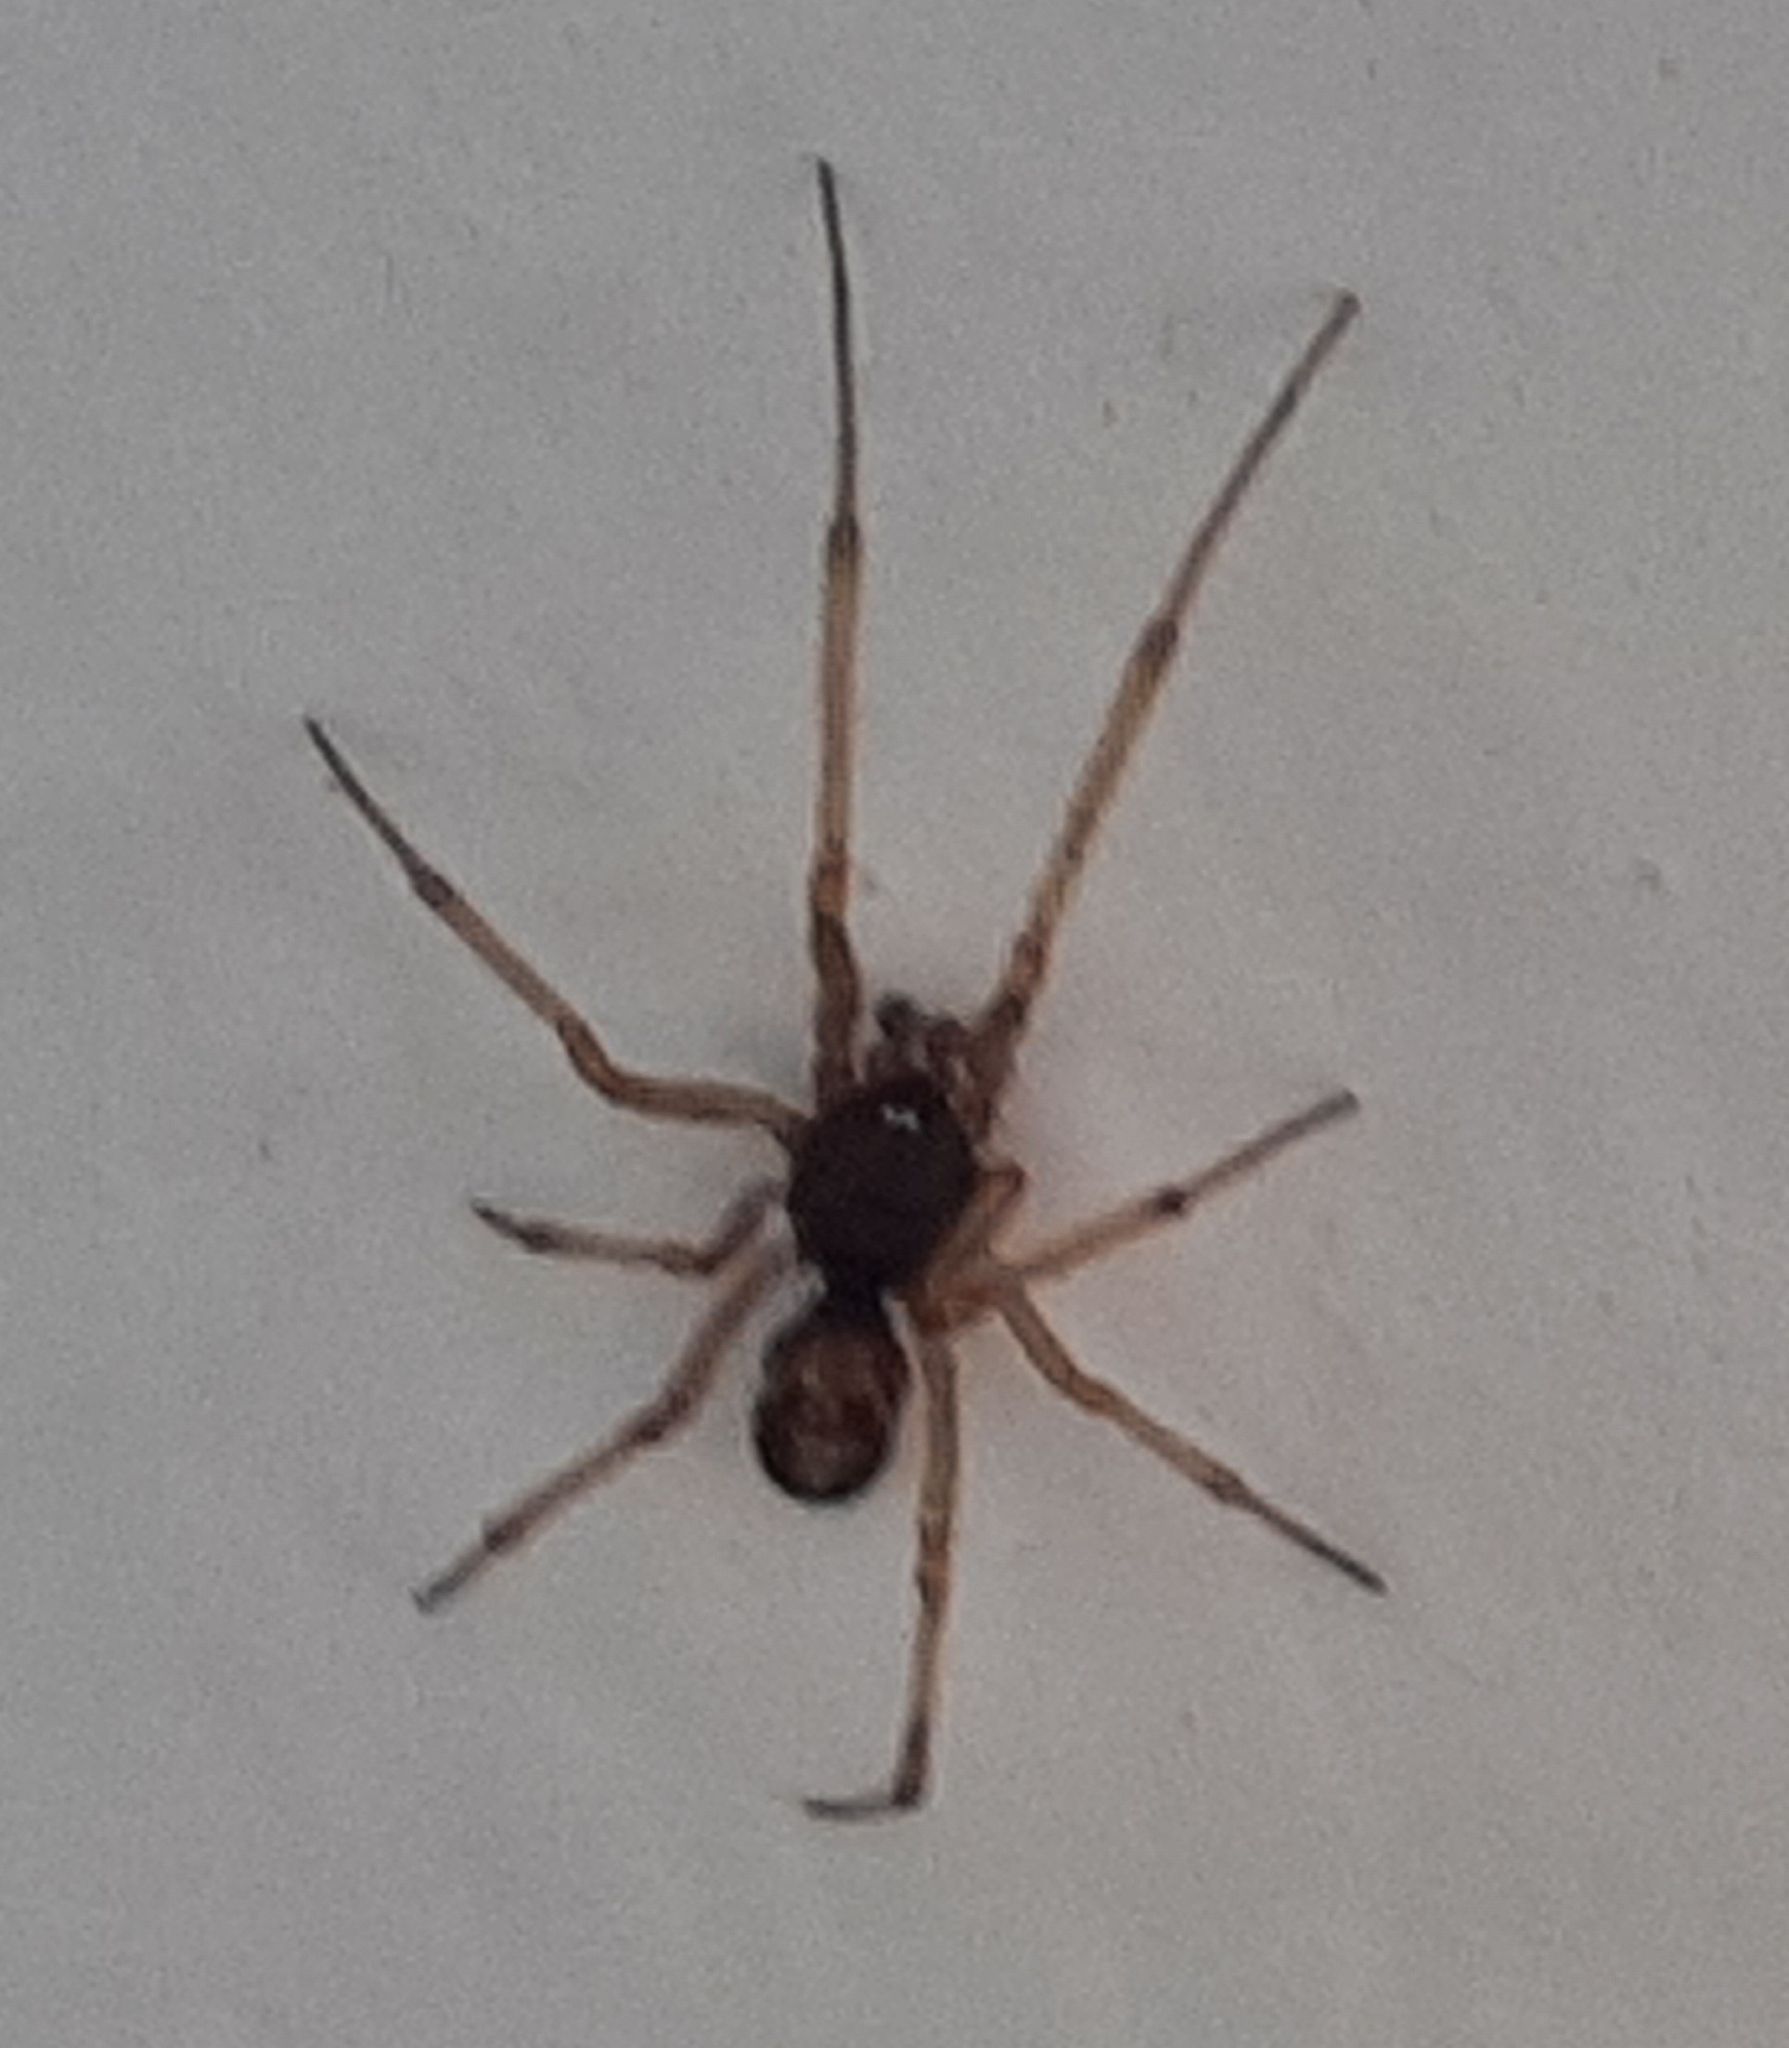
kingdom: Animalia
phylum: Arthropoda
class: Arachnida
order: Araneae
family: Theridiidae
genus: Steatoda
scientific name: Steatoda triangulosa
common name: Triangulate bud spider
